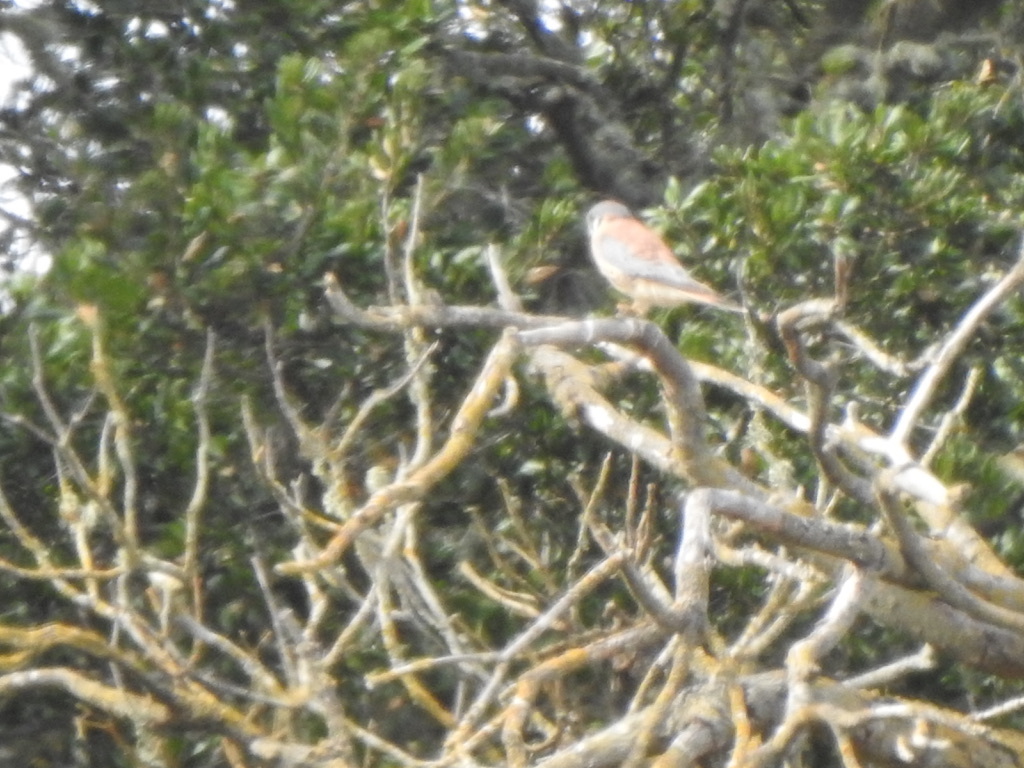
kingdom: Animalia
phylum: Chordata
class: Aves
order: Falconiformes
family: Falconidae
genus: Falco
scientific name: Falco sparverius
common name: American kestrel
